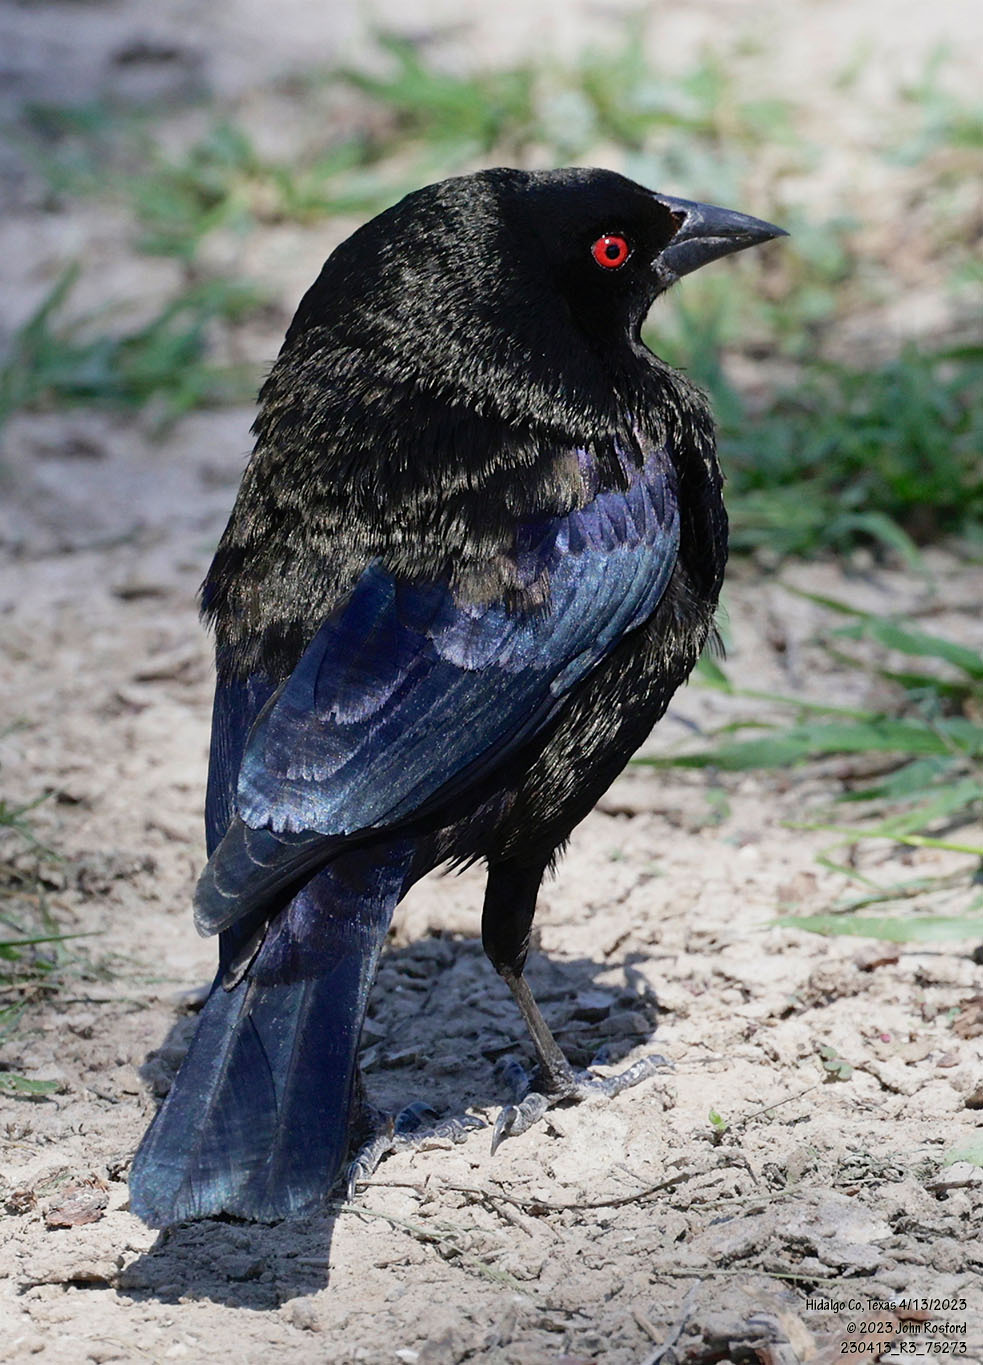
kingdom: Animalia
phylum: Chordata
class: Aves
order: Passeriformes
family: Icteridae
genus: Molothrus
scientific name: Molothrus aeneus
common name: Bronzed cowbird
